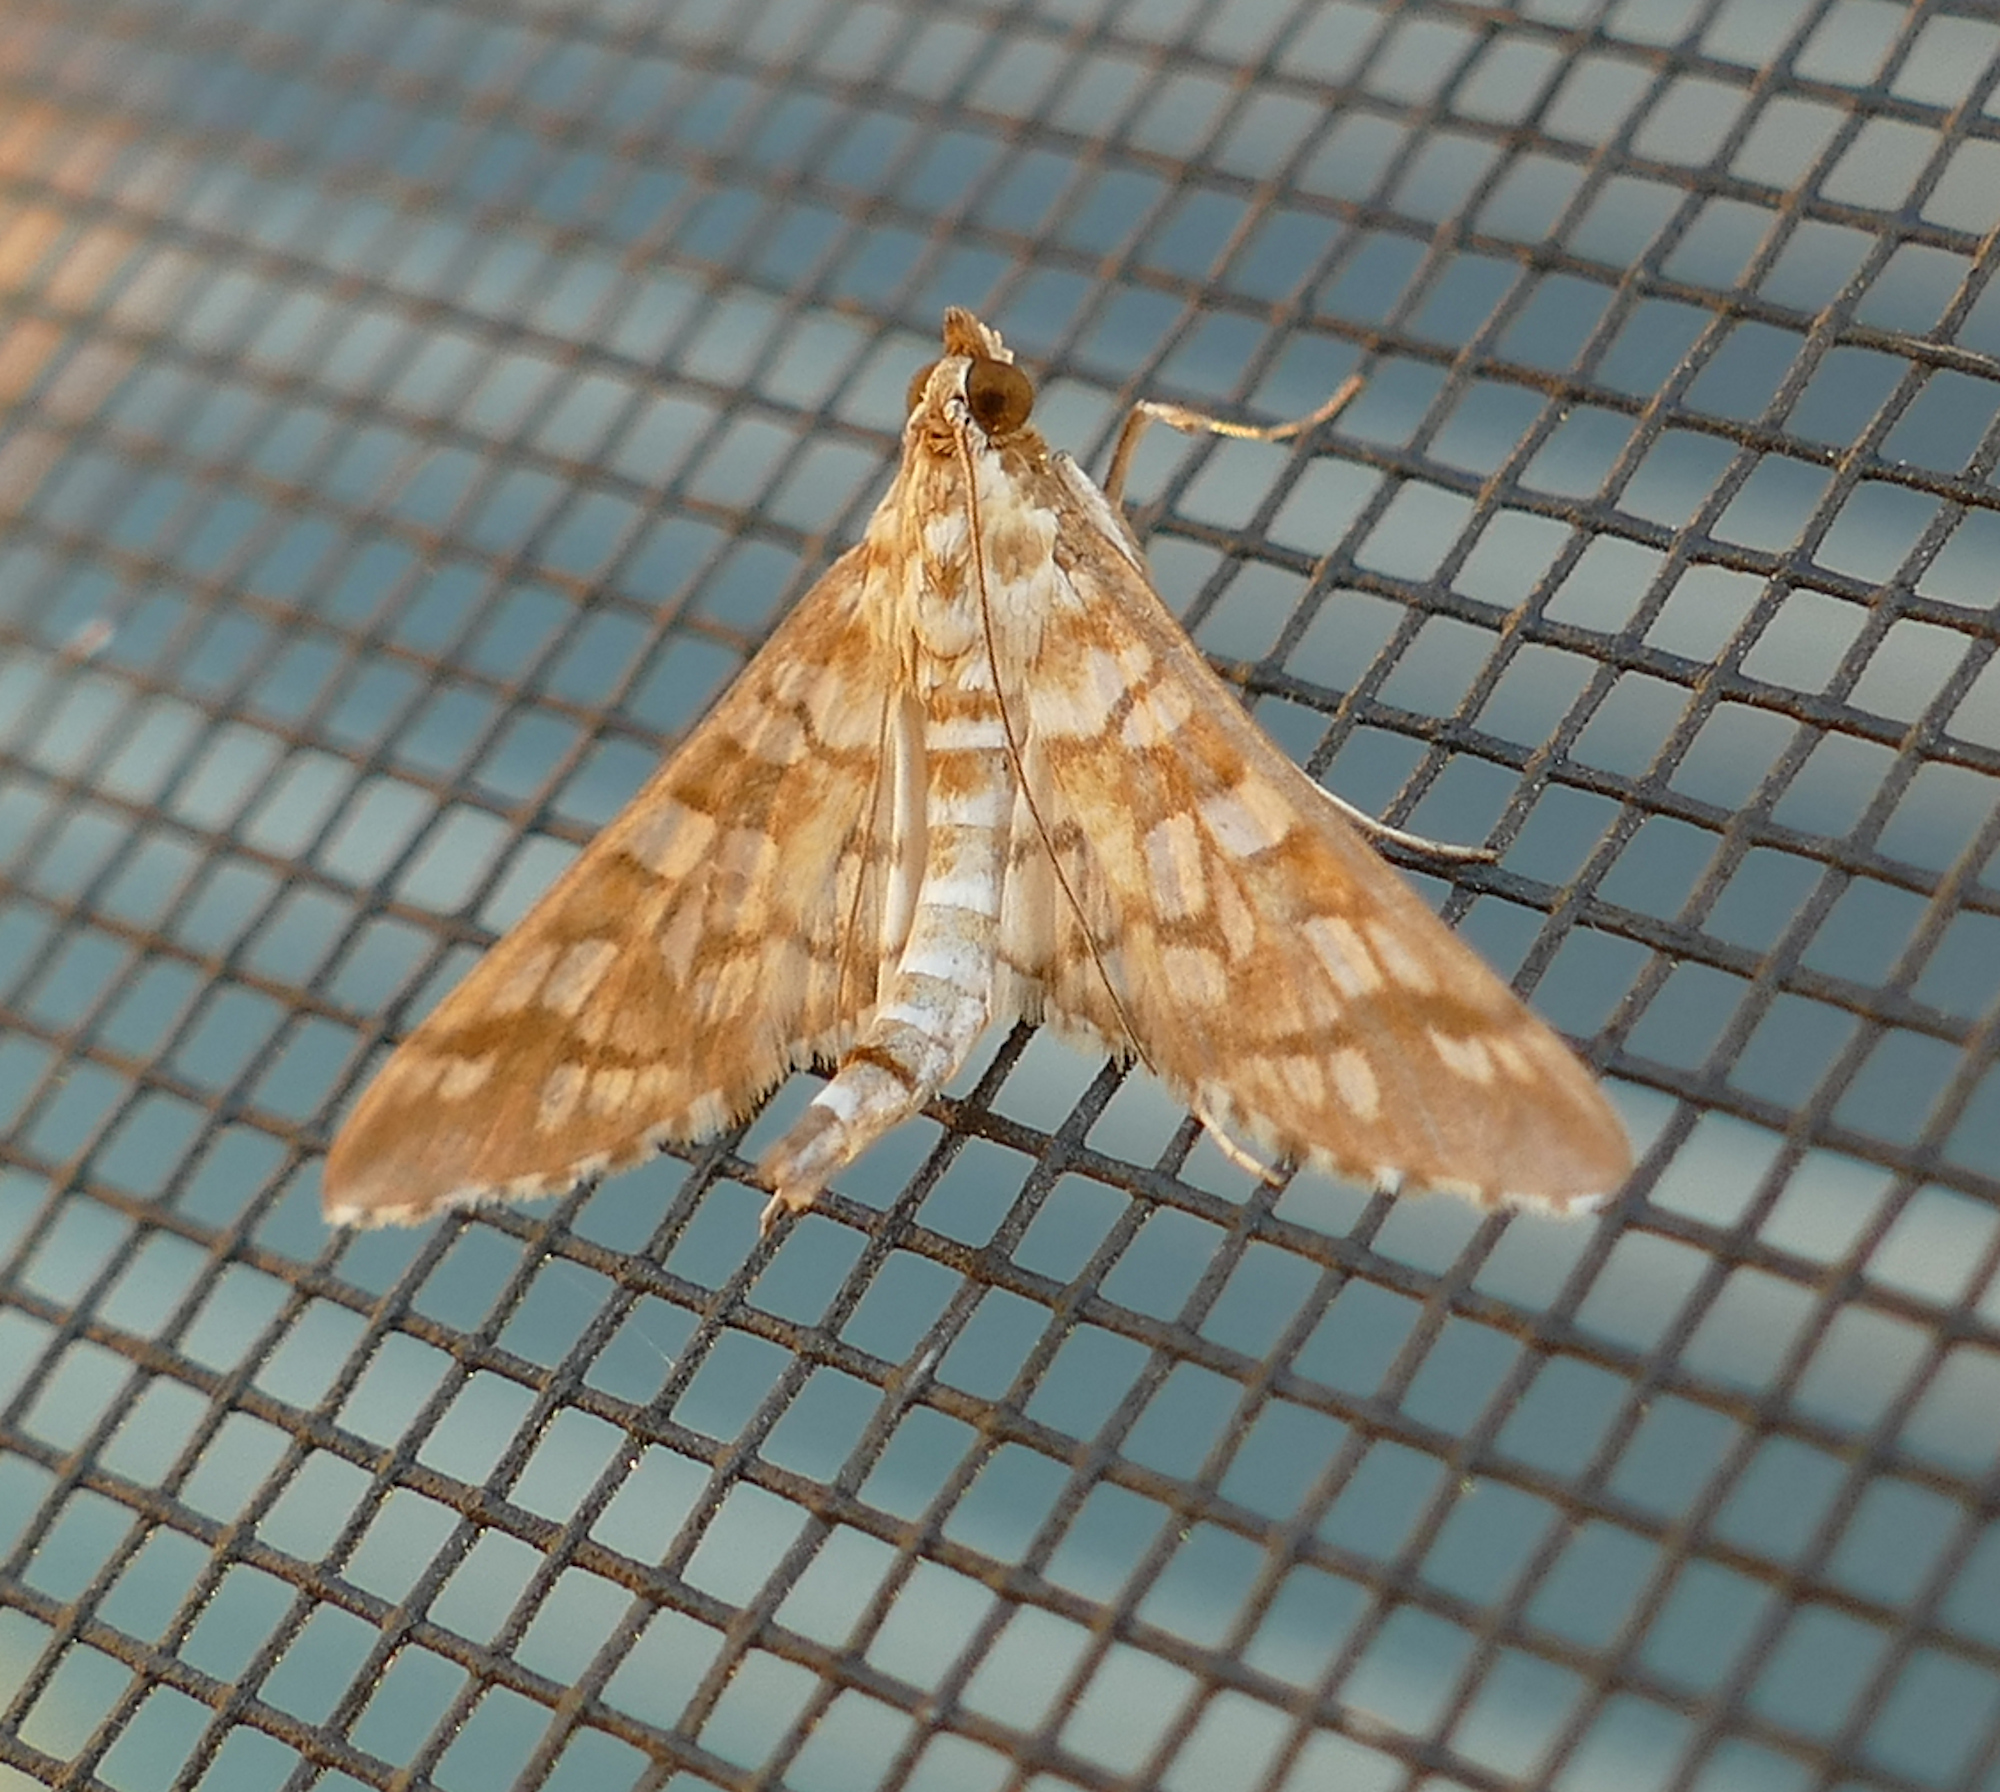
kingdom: Animalia
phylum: Arthropoda
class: Insecta
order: Lepidoptera
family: Crambidae
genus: Epipagis
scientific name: Epipagis fenestralis
